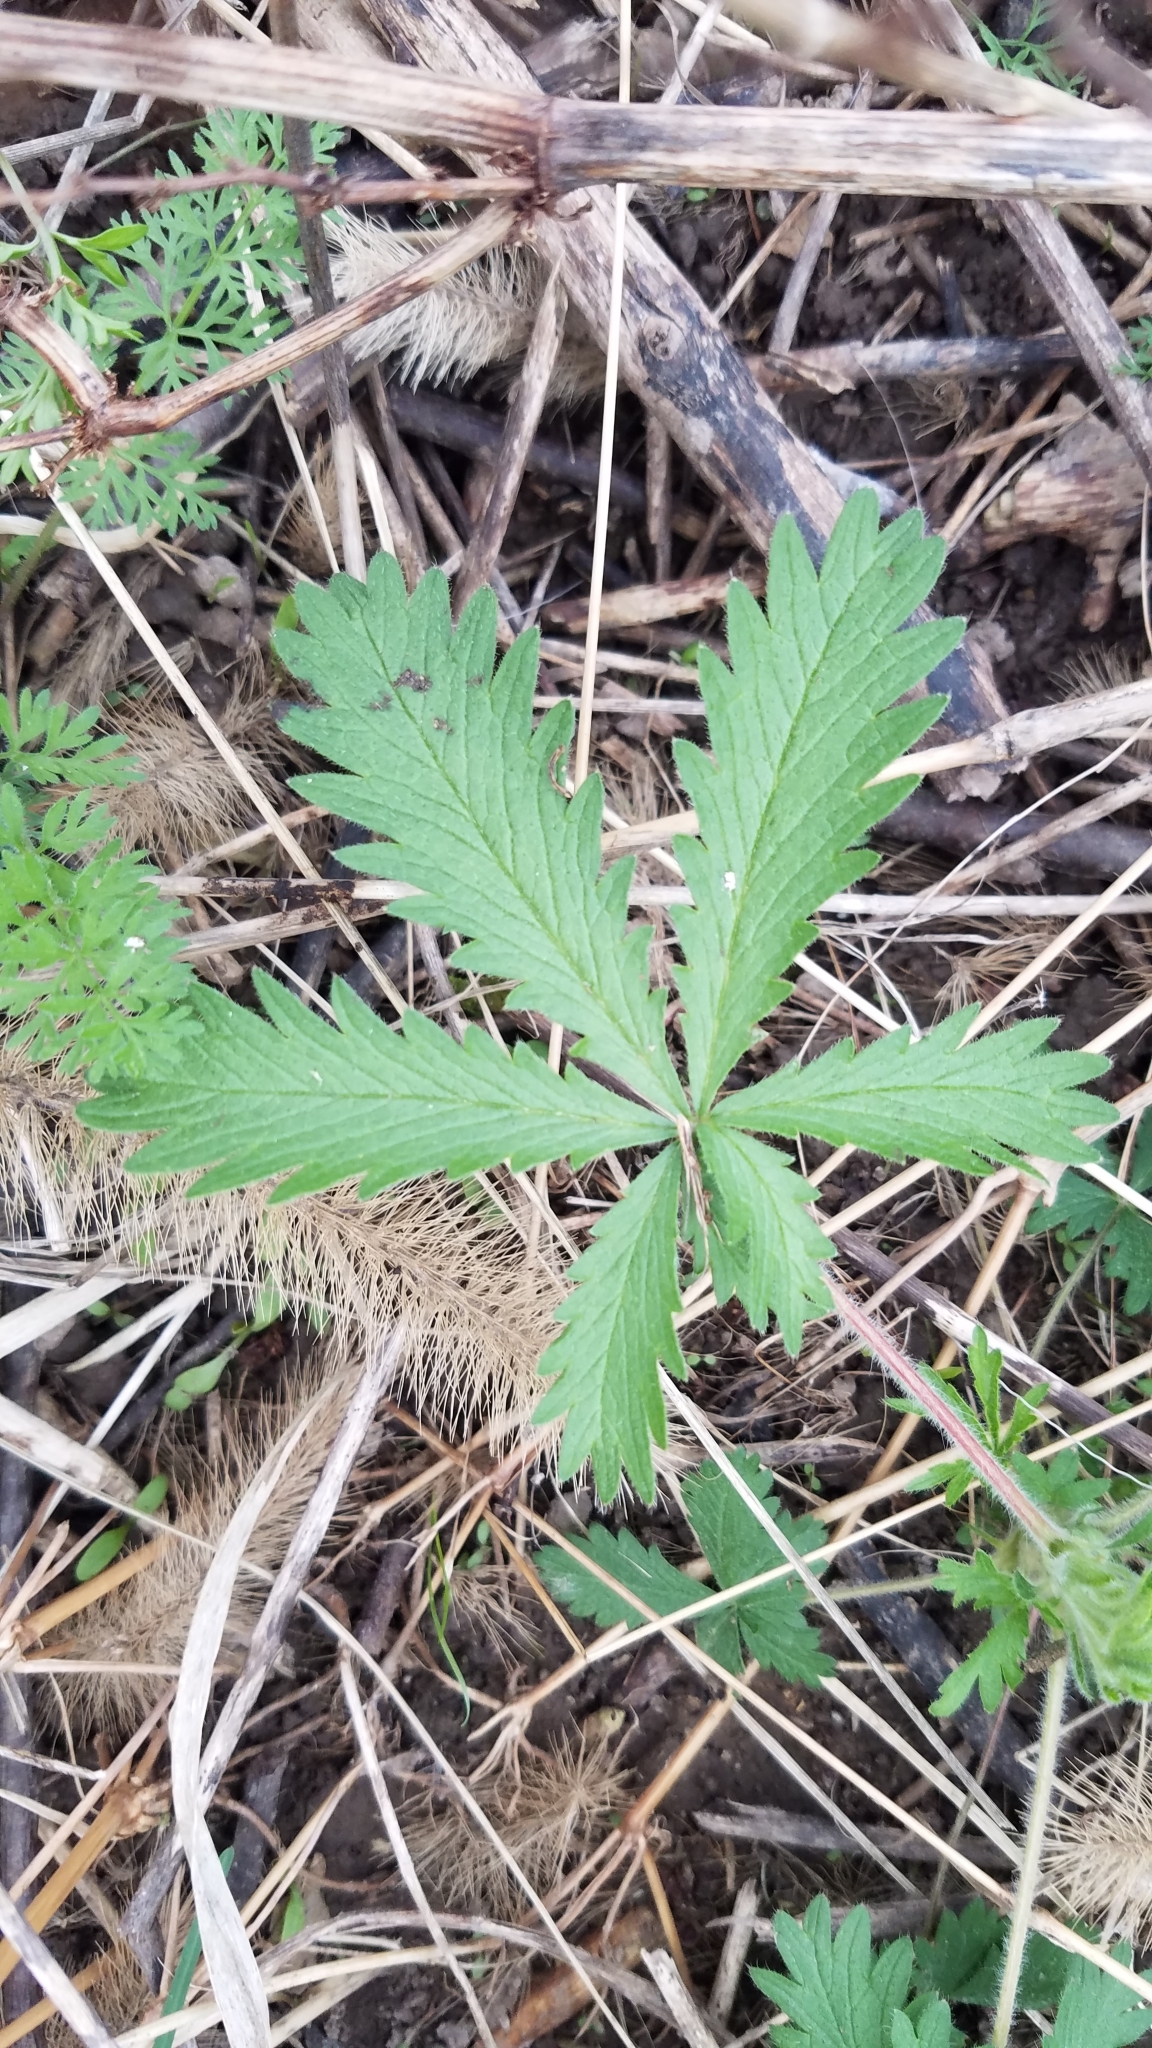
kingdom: Plantae
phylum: Tracheophyta
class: Magnoliopsida
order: Rosales
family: Rosaceae
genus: Potentilla
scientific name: Potentilla recta
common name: Sulphur cinquefoil
